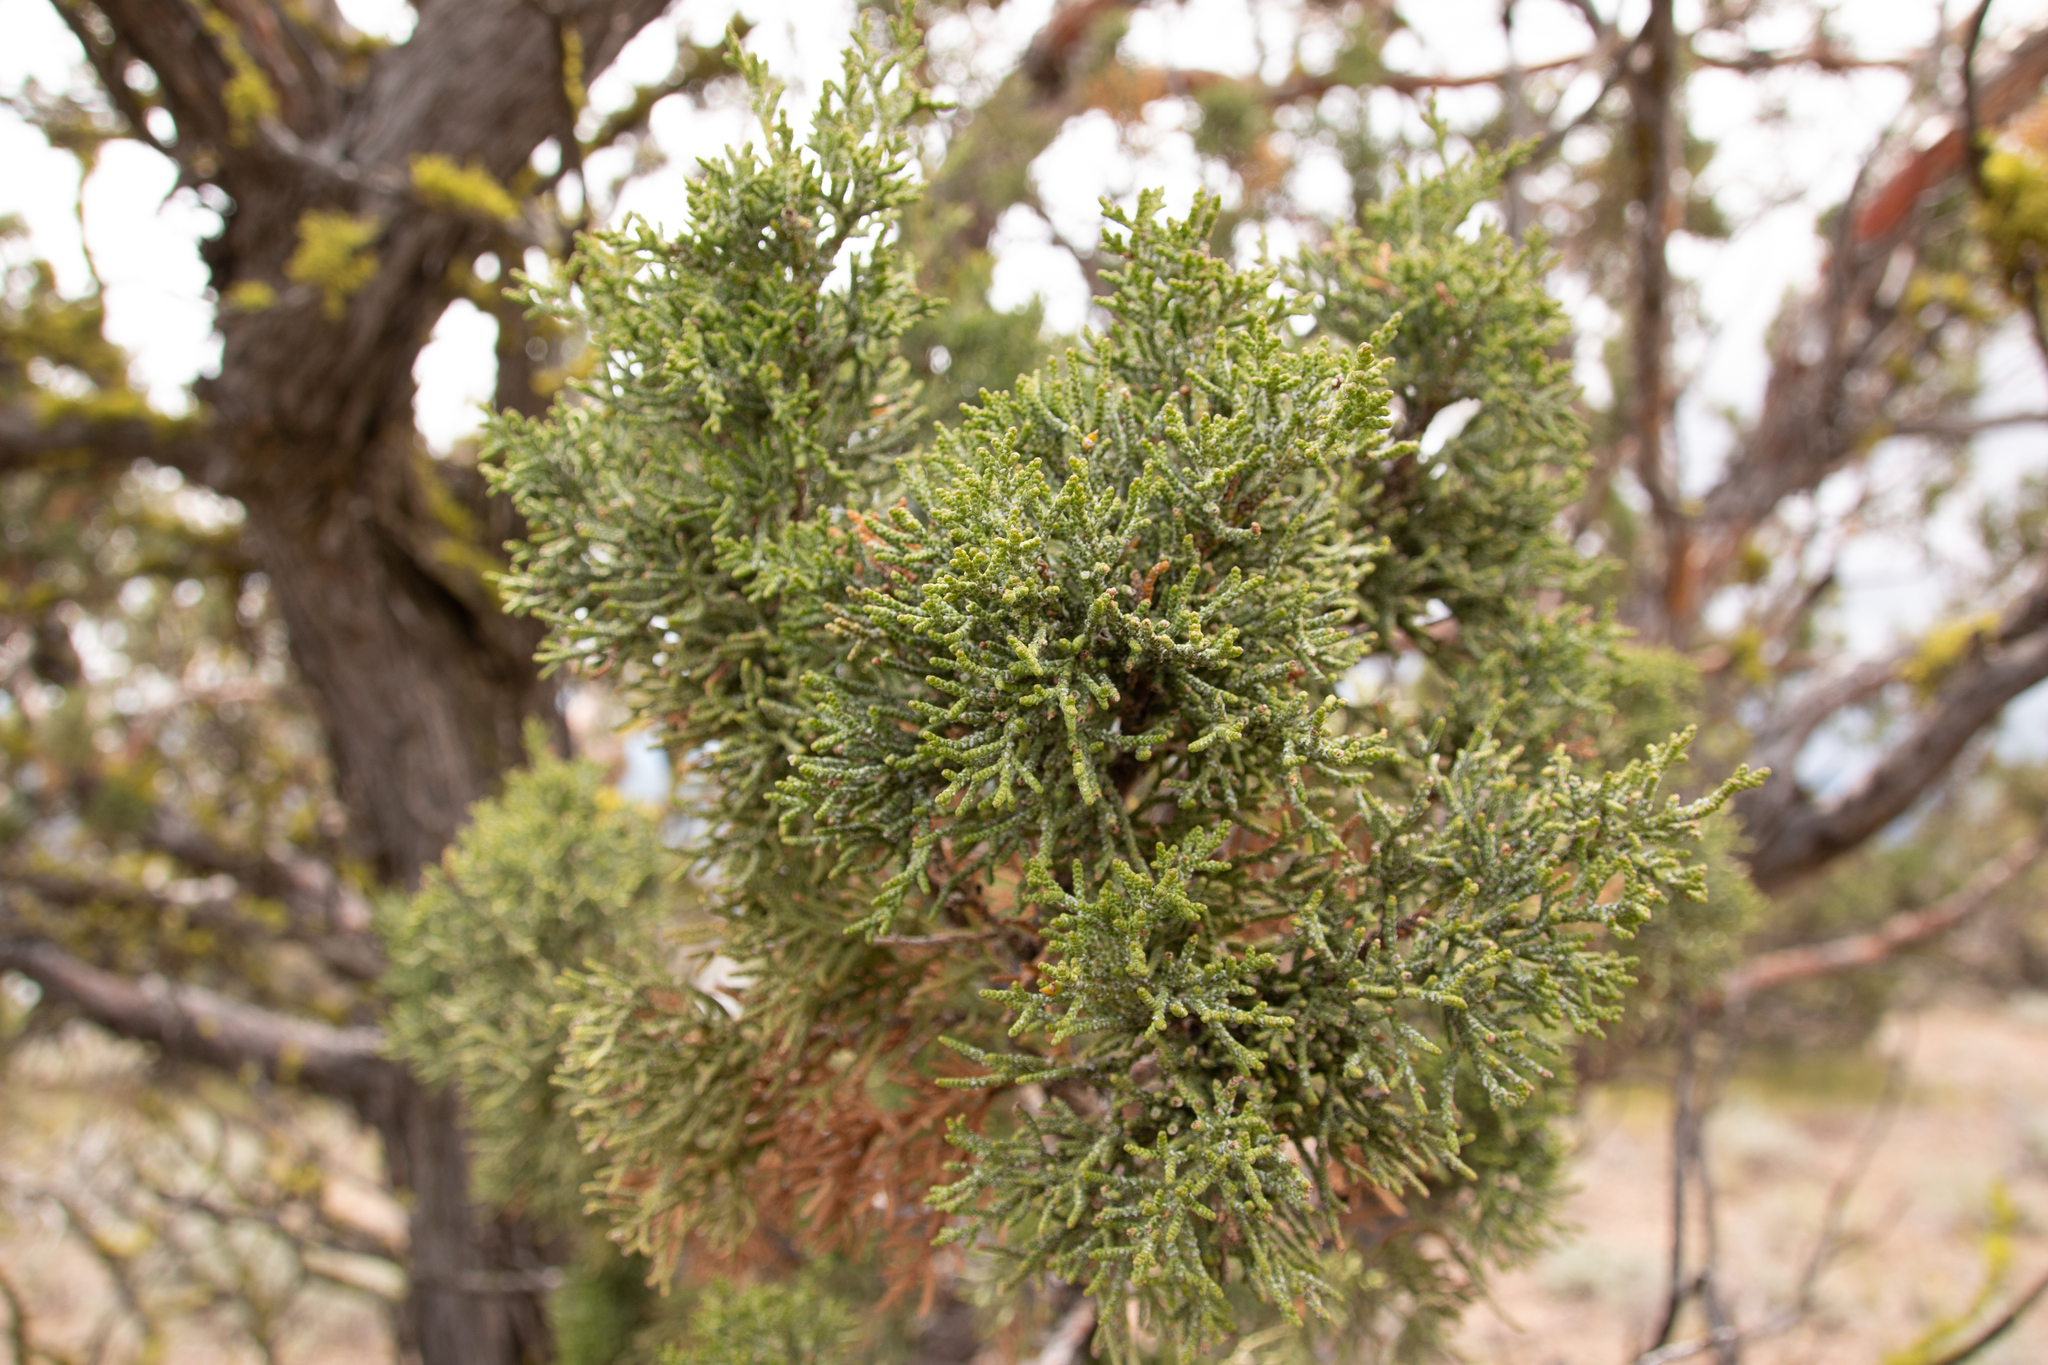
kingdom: Plantae
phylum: Tracheophyta
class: Pinopsida
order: Pinales
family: Cupressaceae
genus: Juniperus
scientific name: Juniperus occidentalis
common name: Western juniper
